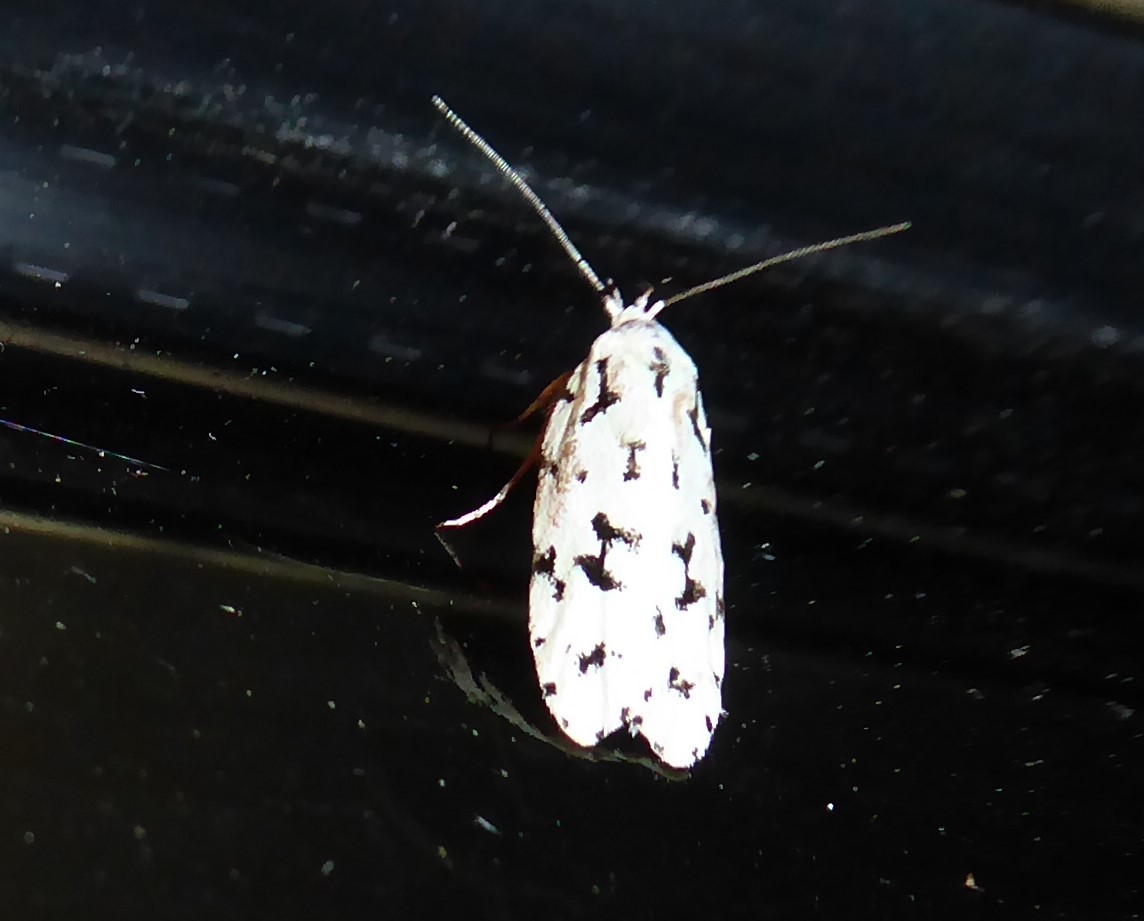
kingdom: Animalia
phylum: Arthropoda
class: Insecta
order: Lepidoptera
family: Oecophoridae
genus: Izatha
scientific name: Izatha huttoni
